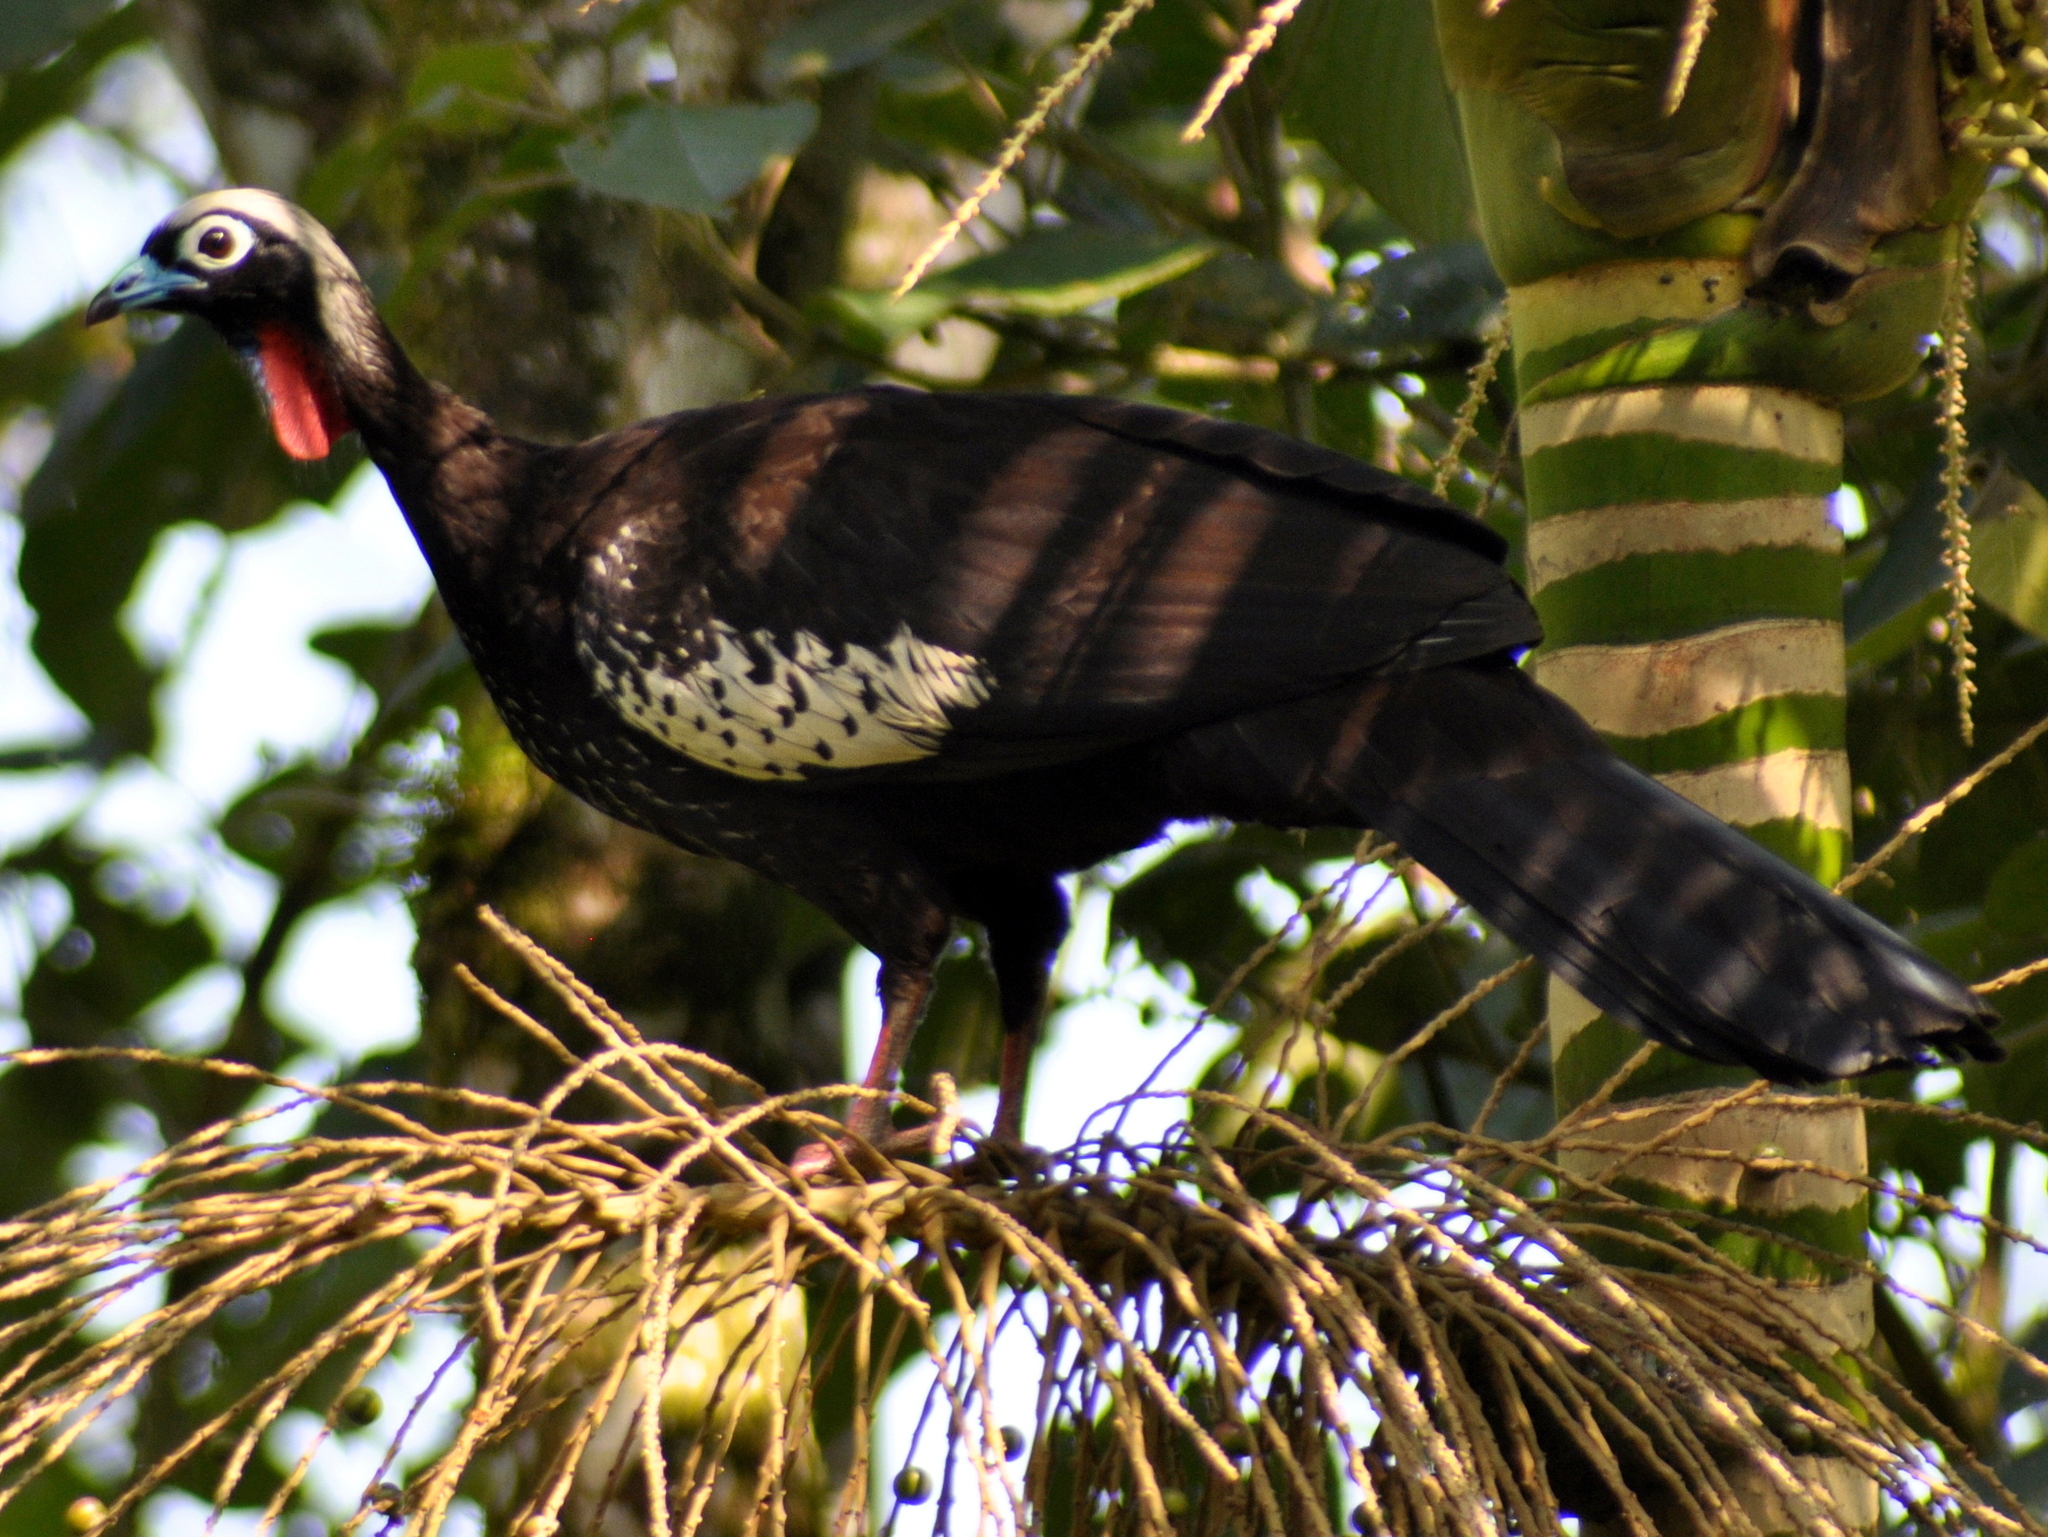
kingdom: Animalia
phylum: Chordata
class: Aves
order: Galliformes
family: Cracidae
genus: Pipile
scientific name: Pipile jacutinga
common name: Black-fronted piping-guan
